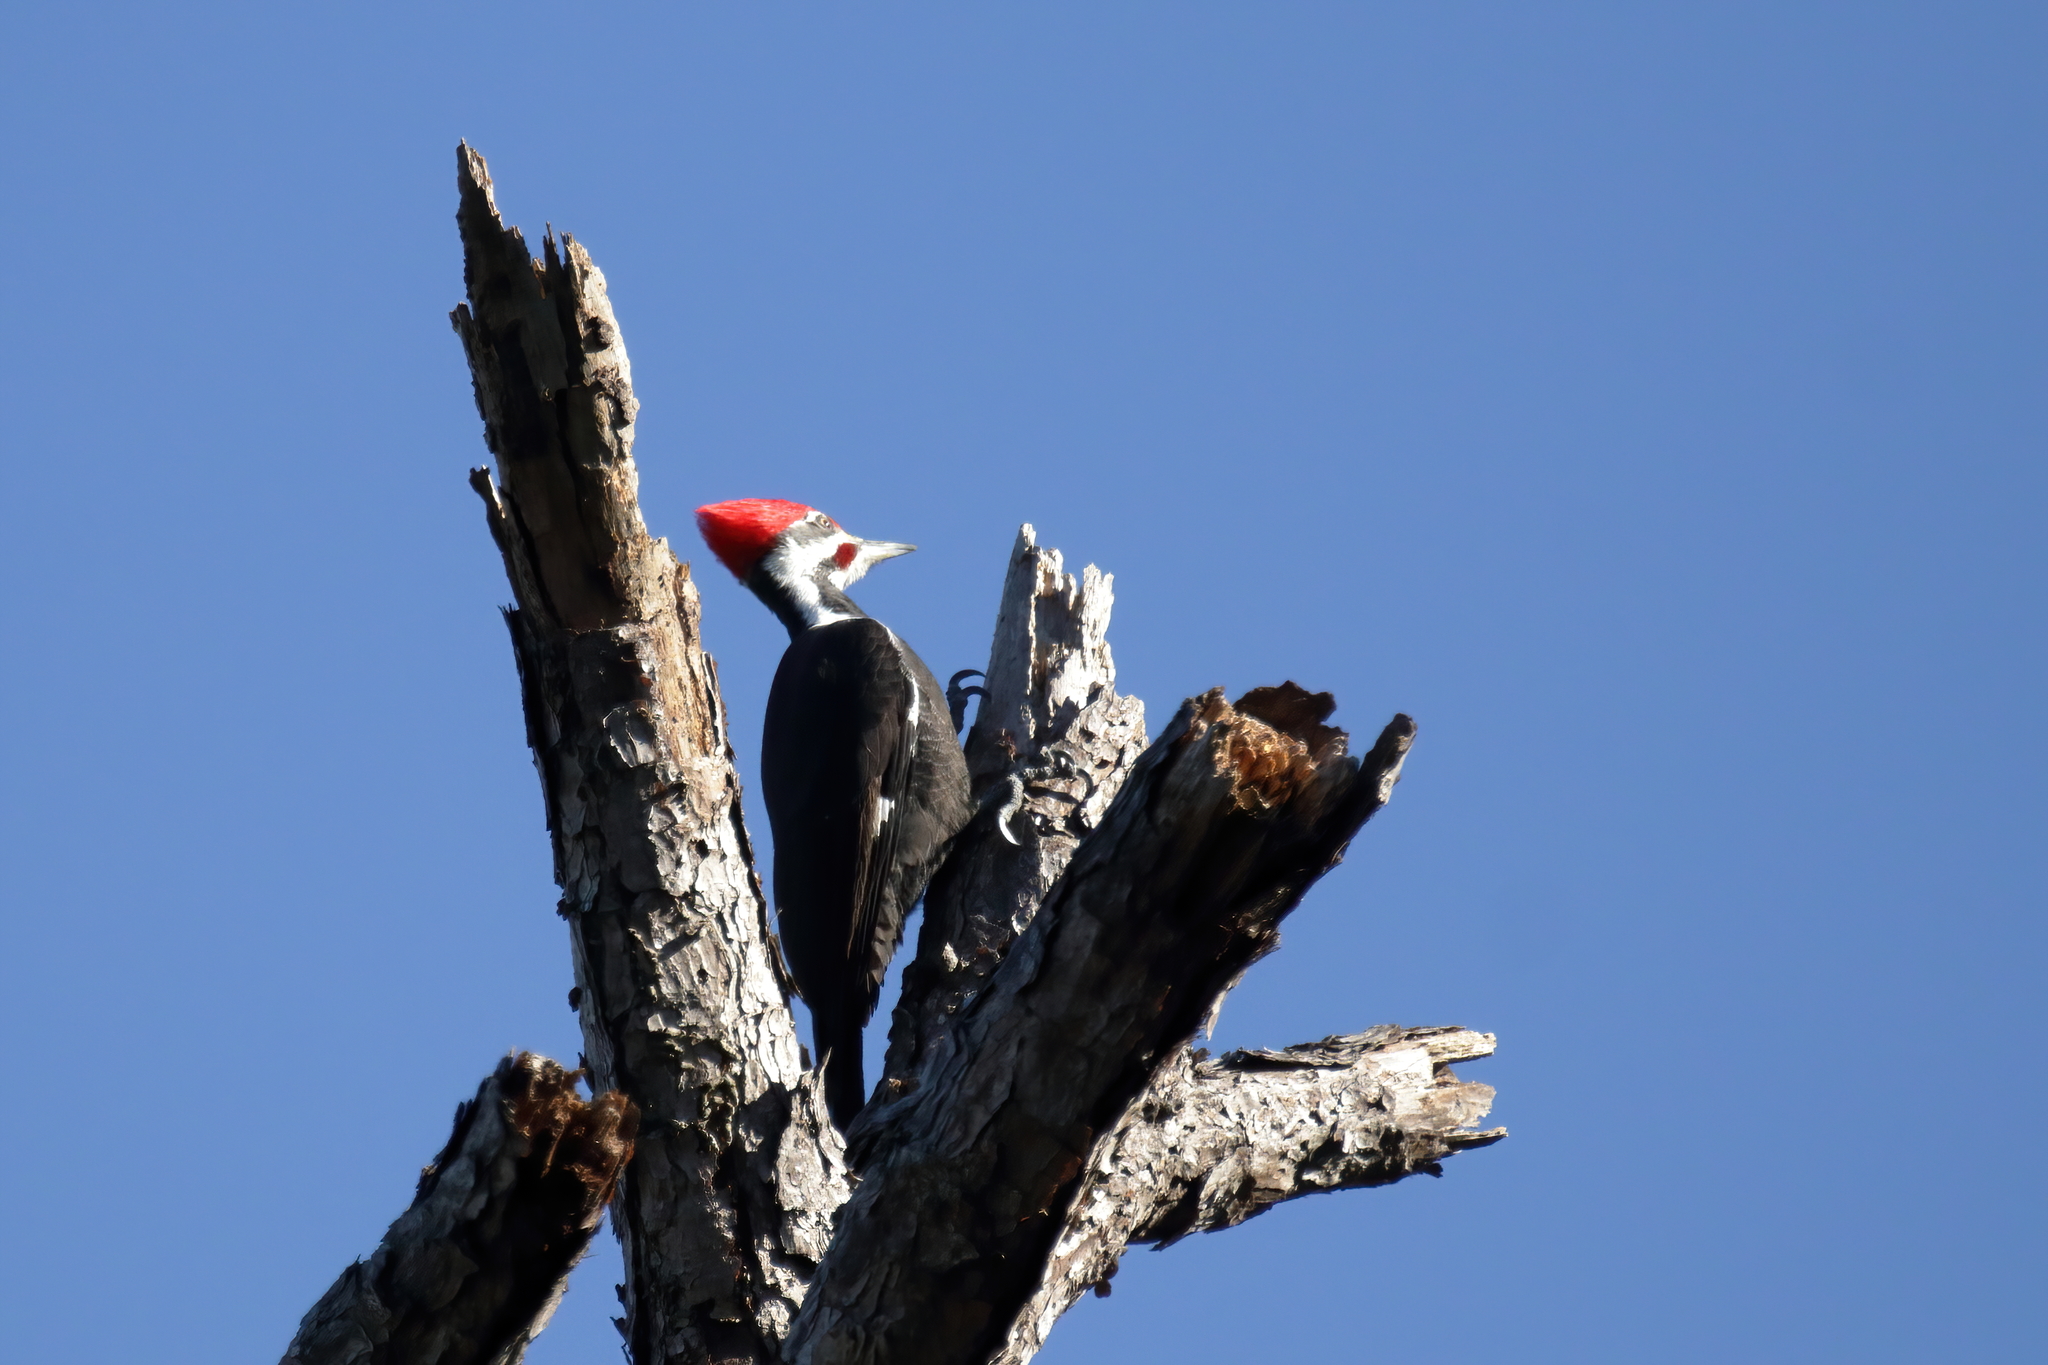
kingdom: Animalia
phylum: Chordata
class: Aves
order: Piciformes
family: Picidae
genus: Dryocopus
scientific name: Dryocopus pileatus
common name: Pileated woodpecker
